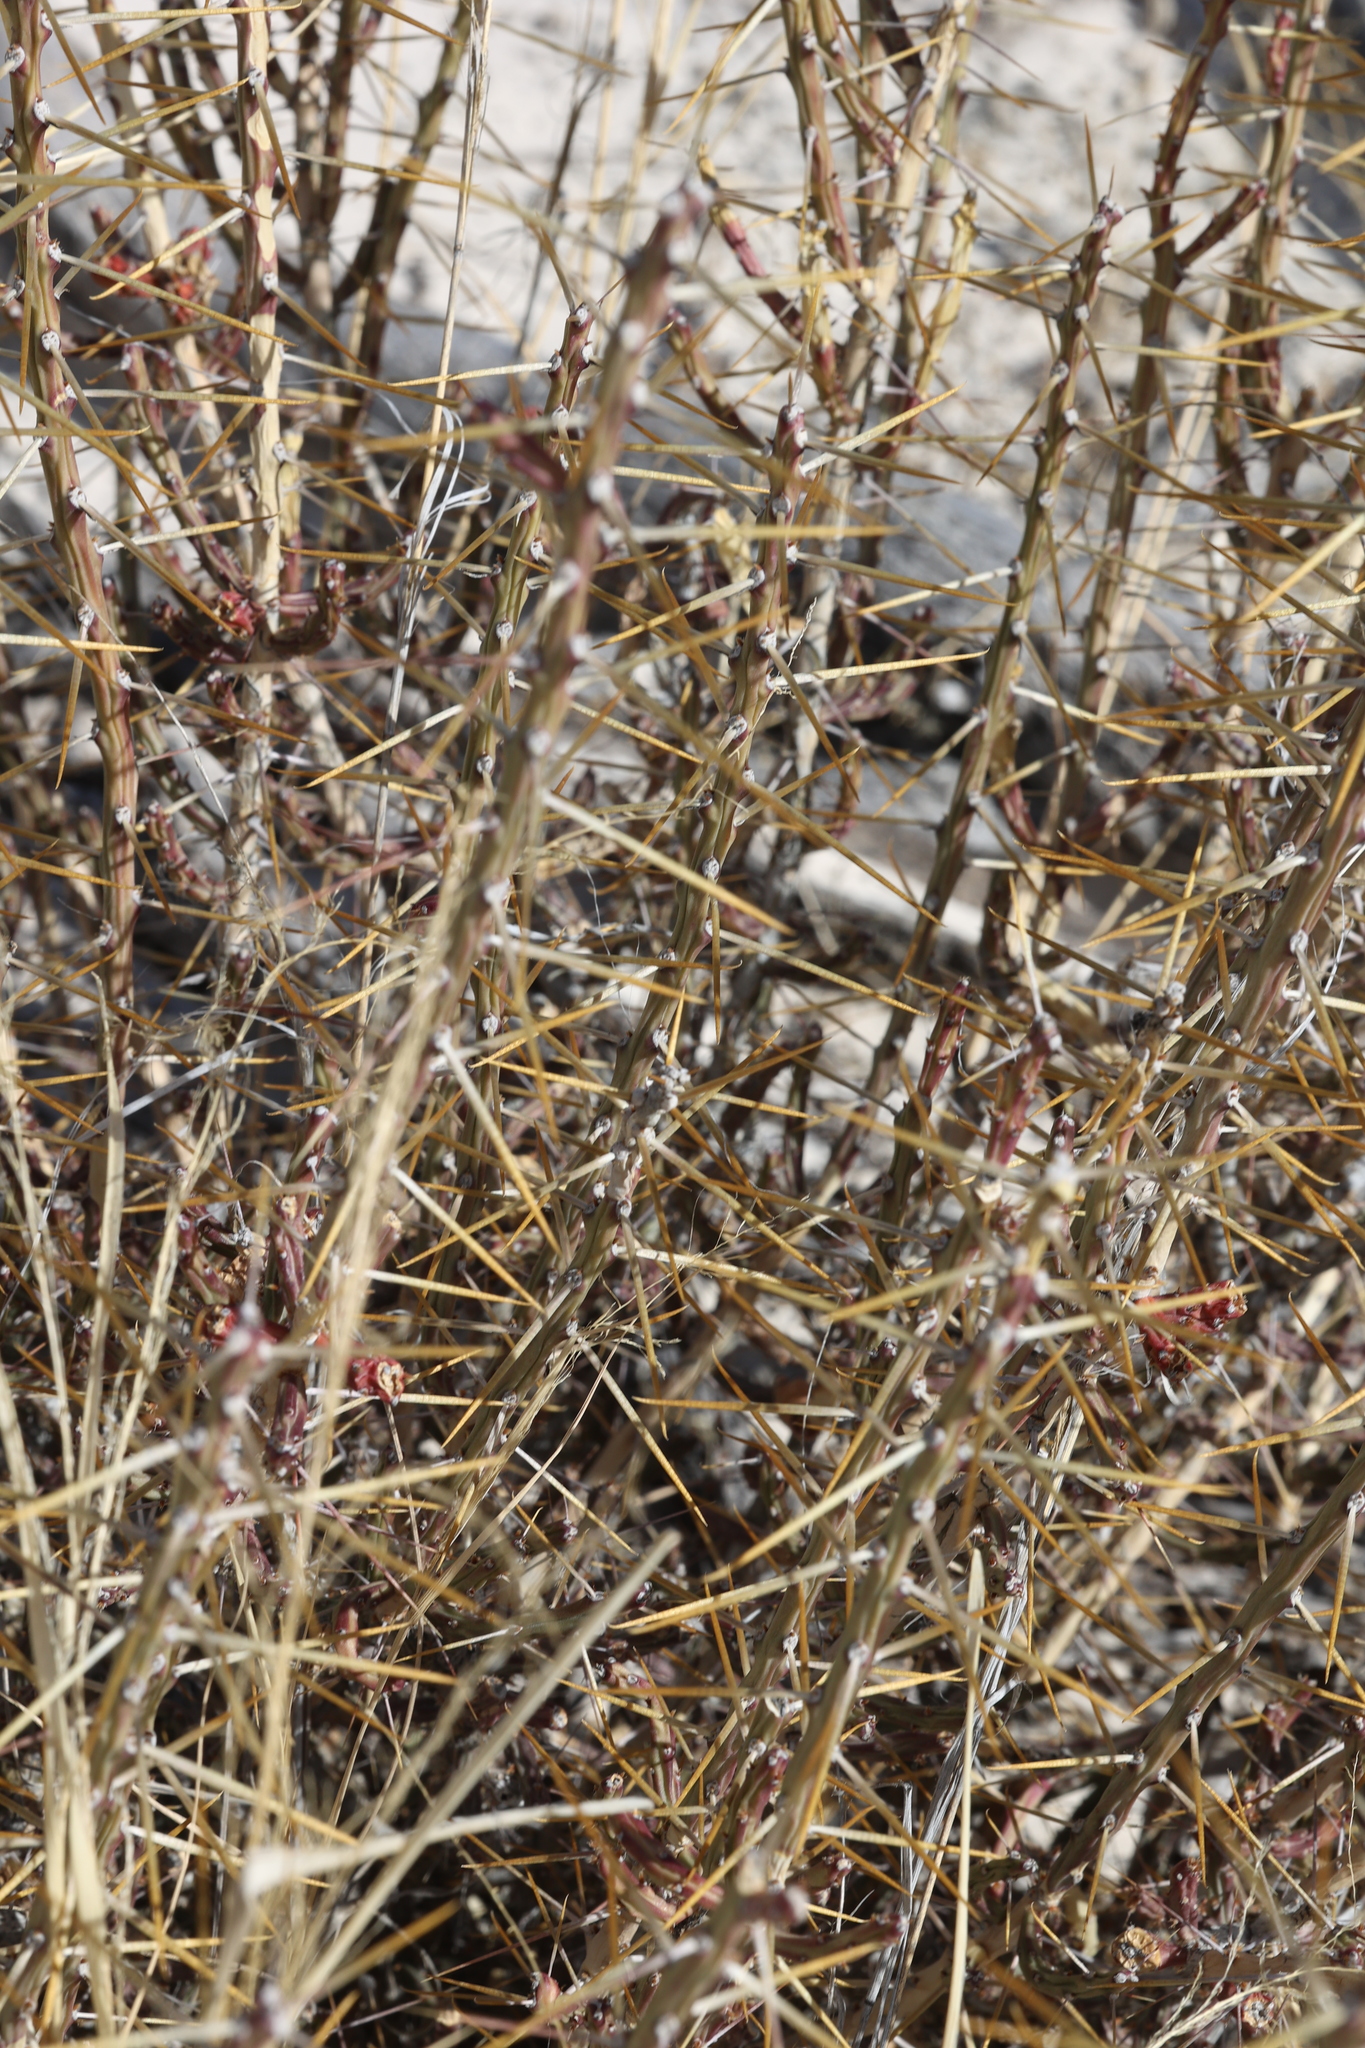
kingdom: Plantae
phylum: Tracheophyta
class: Magnoliopsida
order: Caryophyllales
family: Cactaceae
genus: Cylindropuntia
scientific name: Cylindropuntia leptocaulis
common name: Christmas cactus
